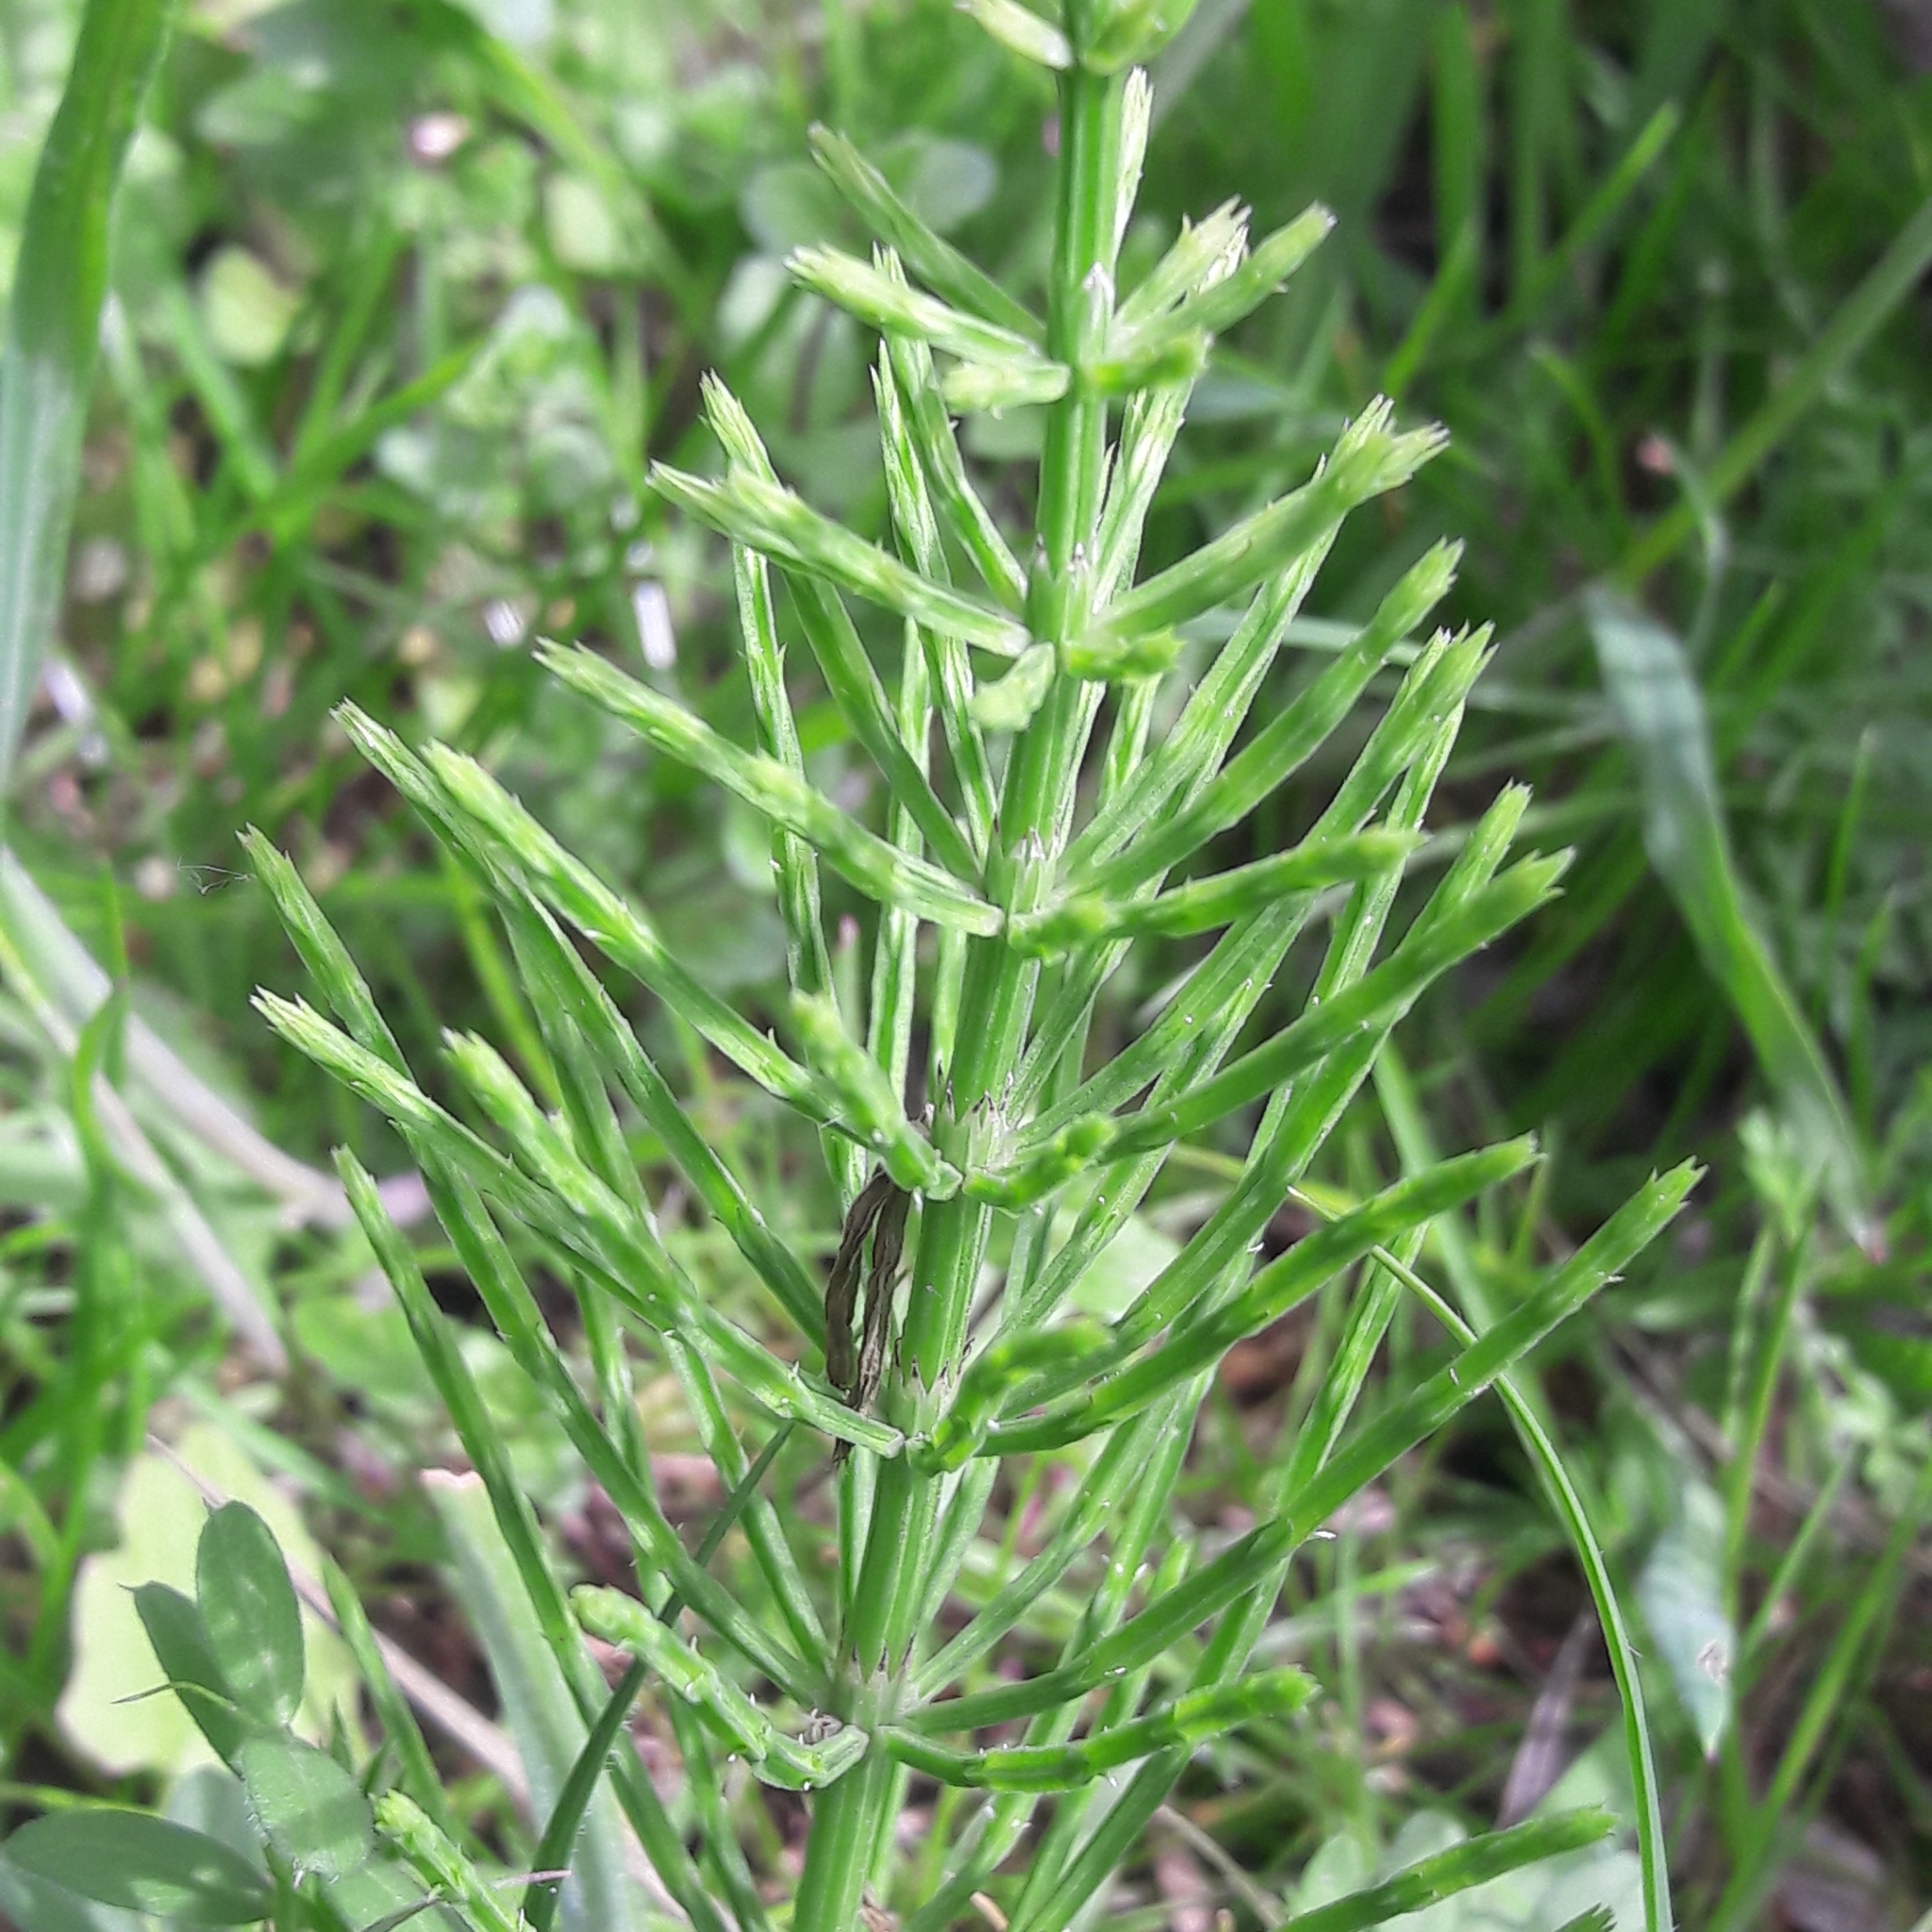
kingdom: Plantae
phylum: Tracheophyta
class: Polypodiopsida
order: Equisetales
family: Equisetaceae
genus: Equisetum
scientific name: Equisetum arvense
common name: Field horsetail
